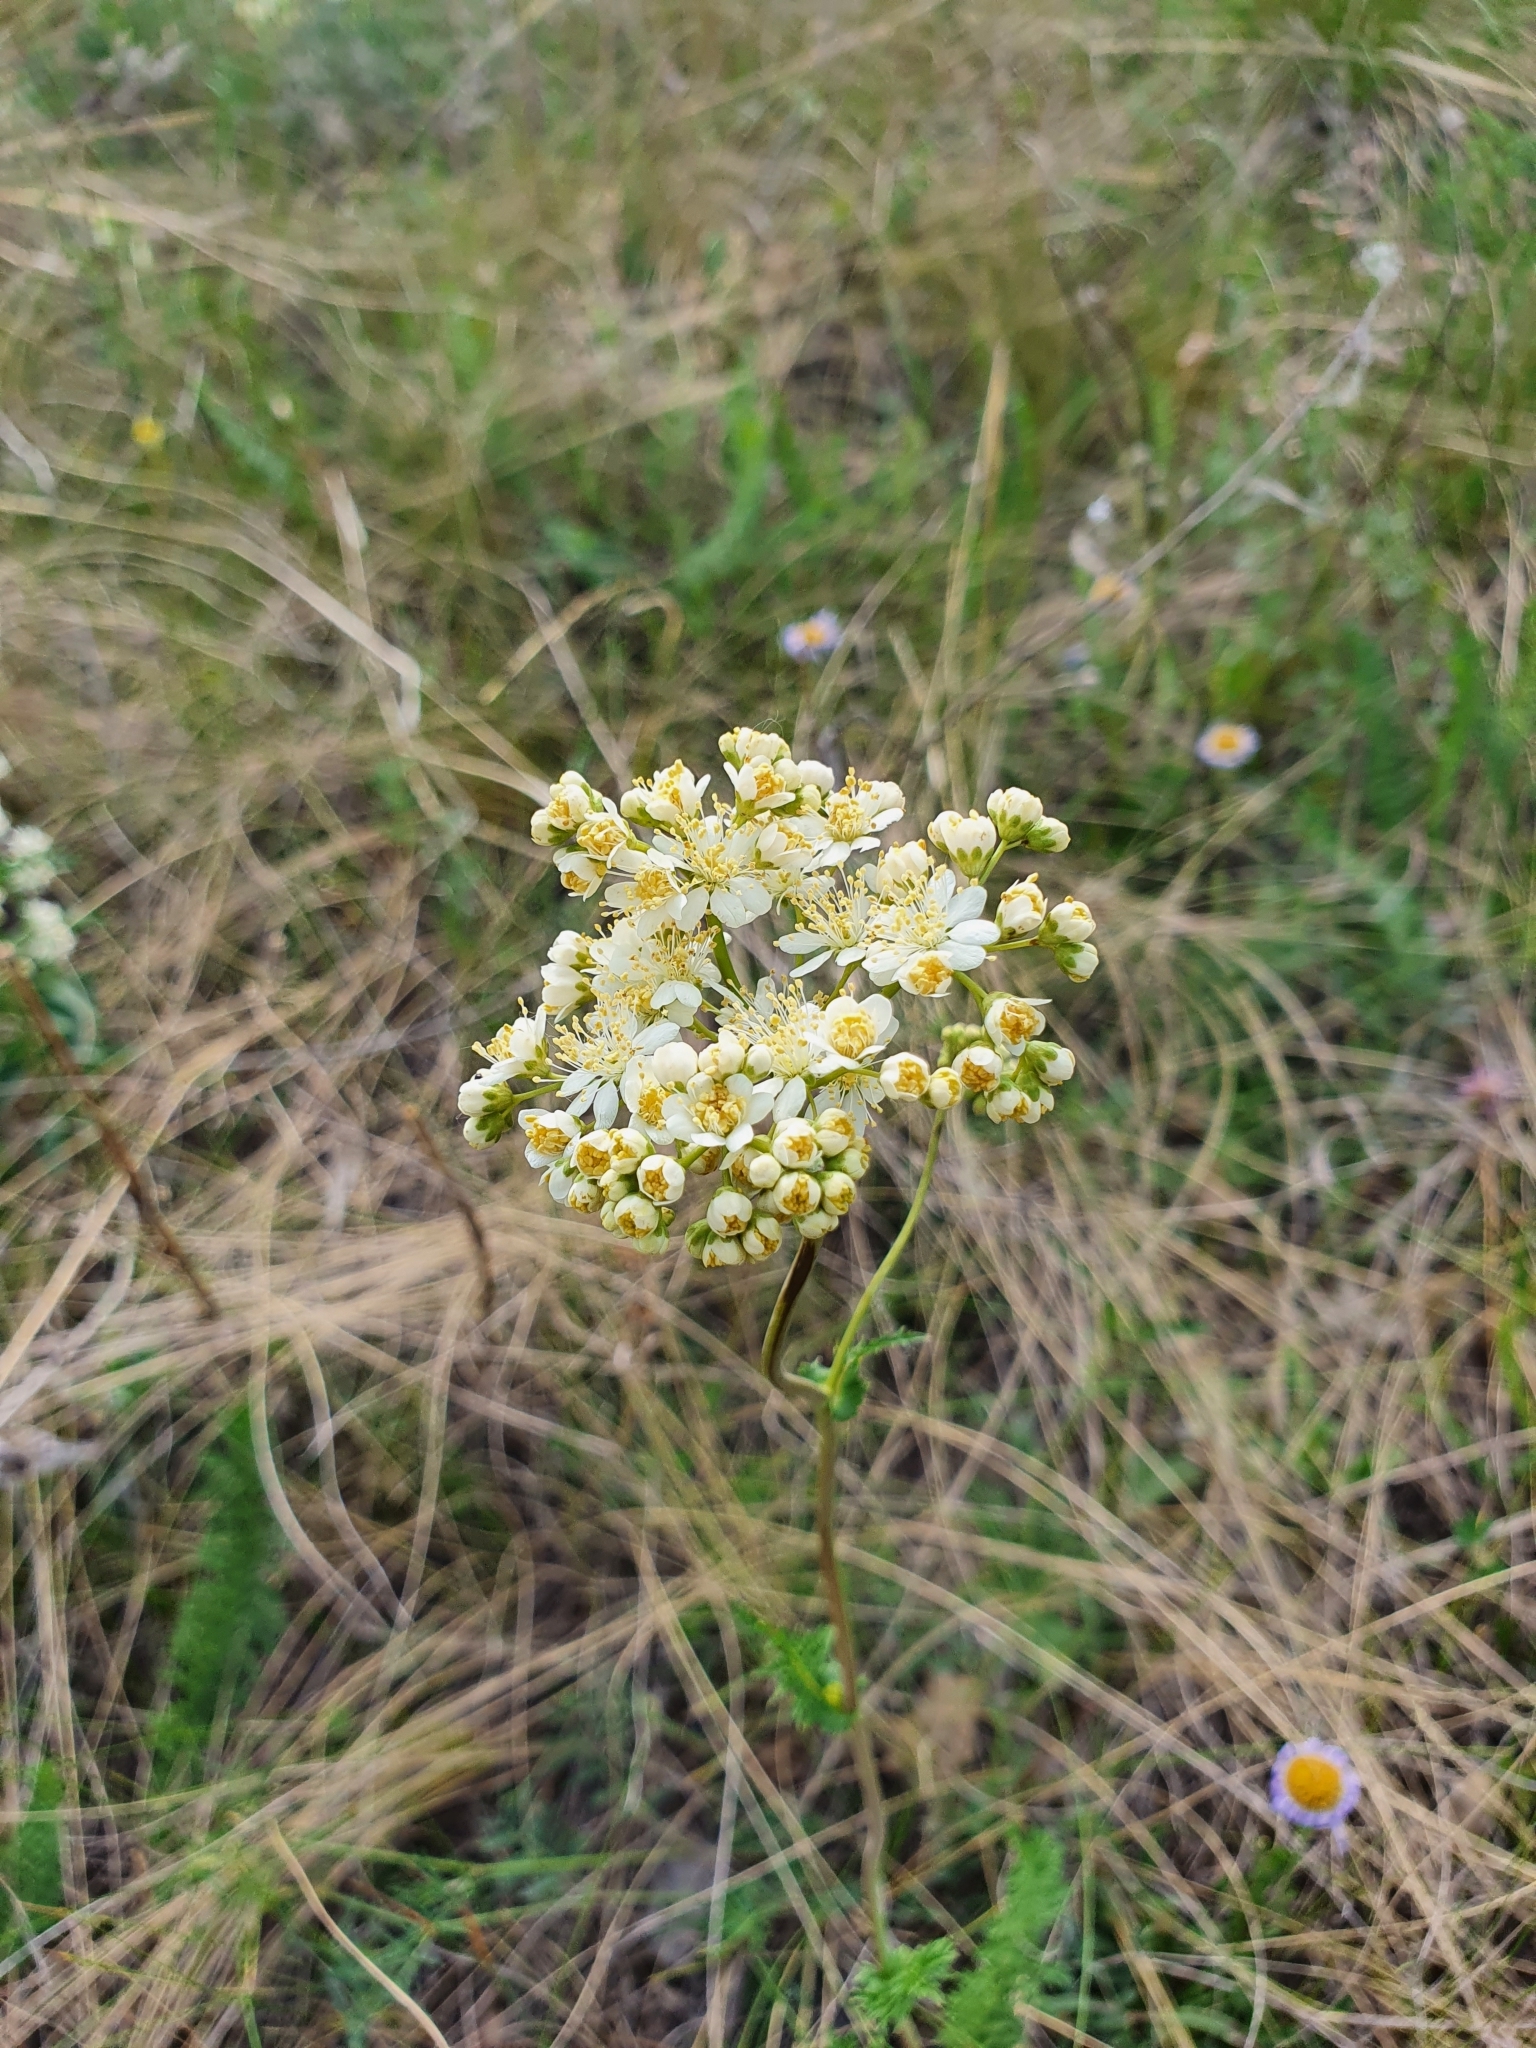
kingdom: Plantae
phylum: Tracheophyta
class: Magnoliopsida
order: Rosales
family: Rosaceae
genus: Filipendula
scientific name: Filipendula vulgaris
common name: Dropwort
